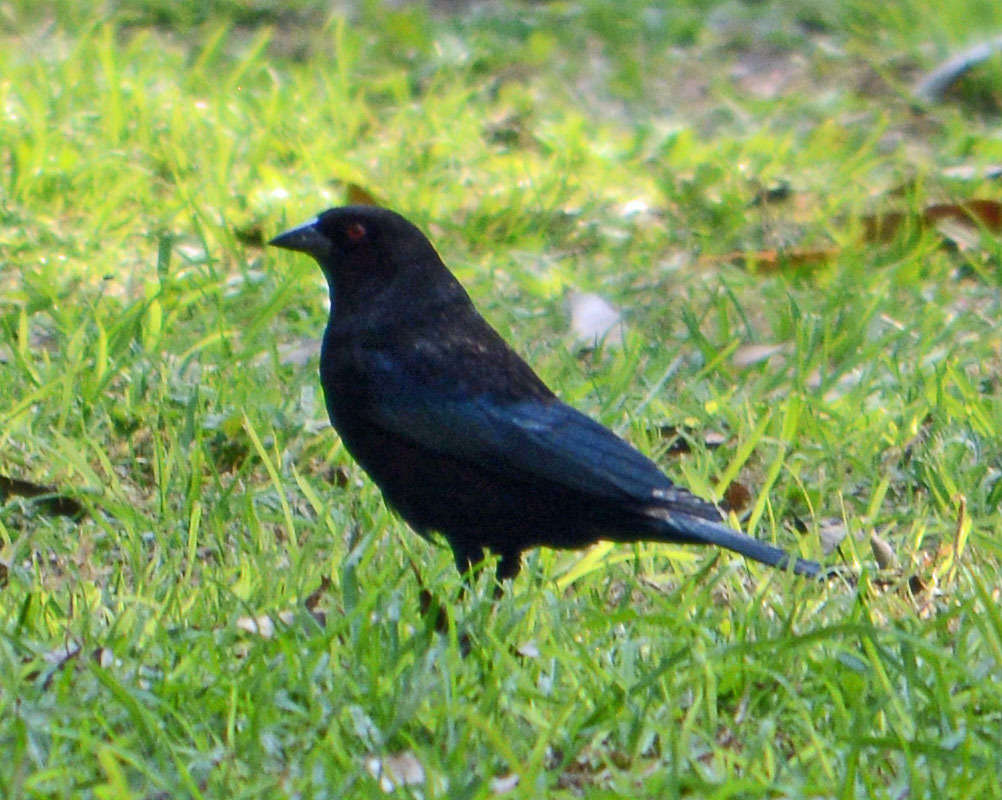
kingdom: Animalia
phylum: Chordata
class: Aves
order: Passeriformes
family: Icteridae
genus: Molothrus
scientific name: Molothrus aeneus
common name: Bronzed cowbird
